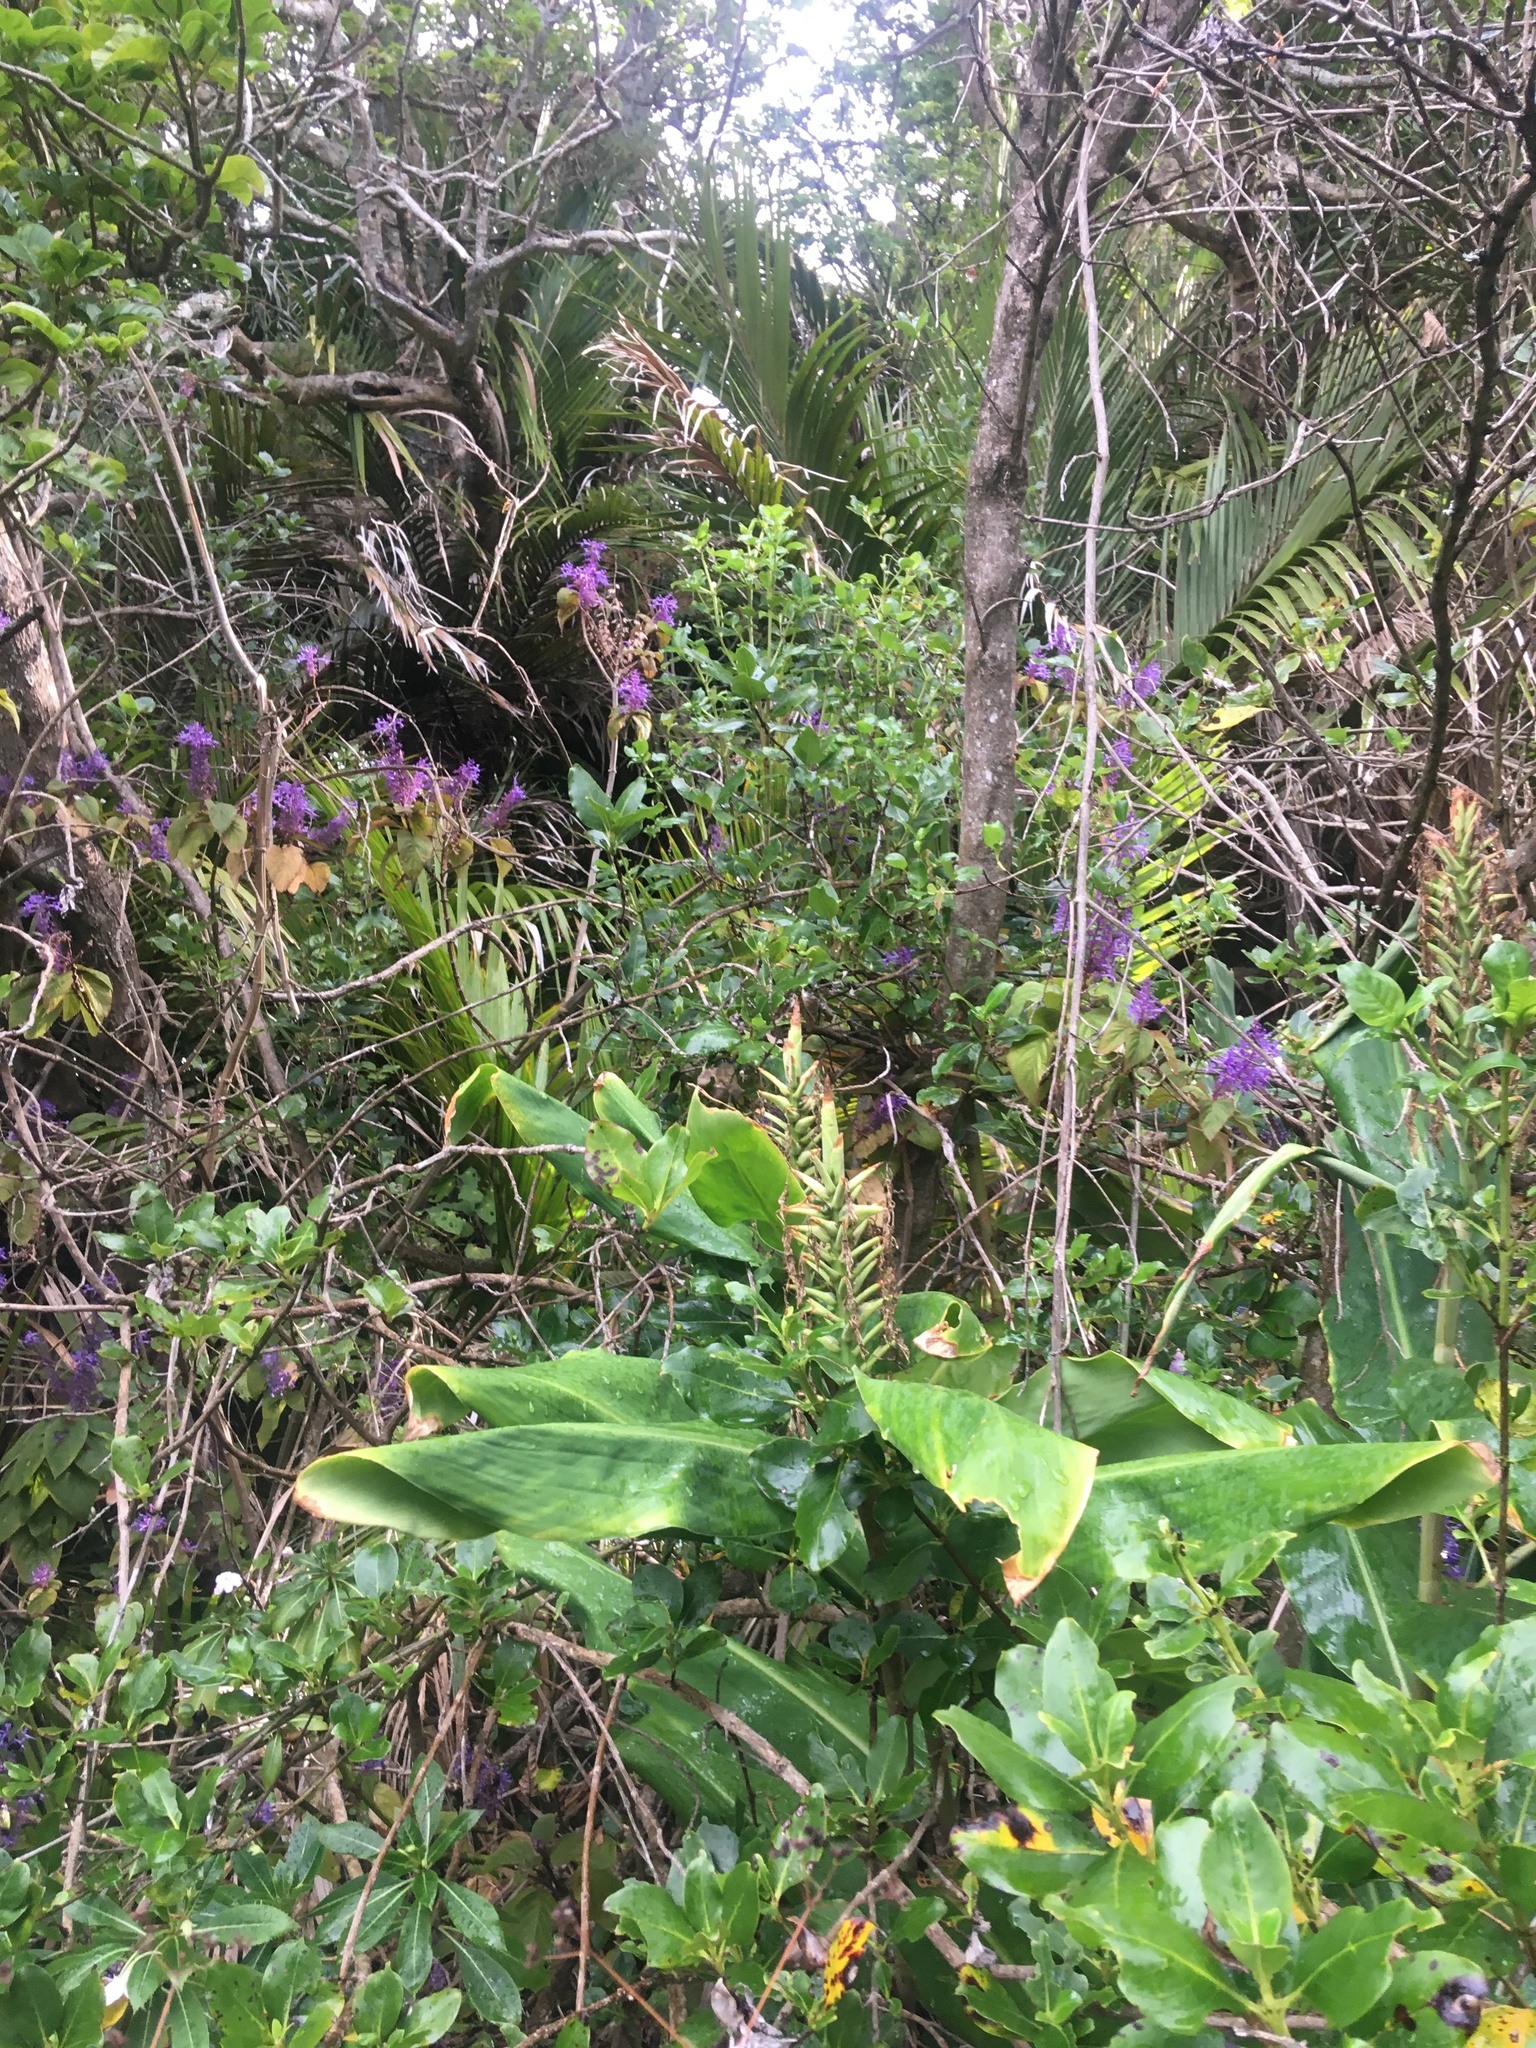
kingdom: Plantae
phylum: Tracheophyta
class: Liliopsida
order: Zingiberales
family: Zingiberaceae
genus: Hedychium
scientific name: Hedychium gardnerianum
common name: Himalayan ginger
